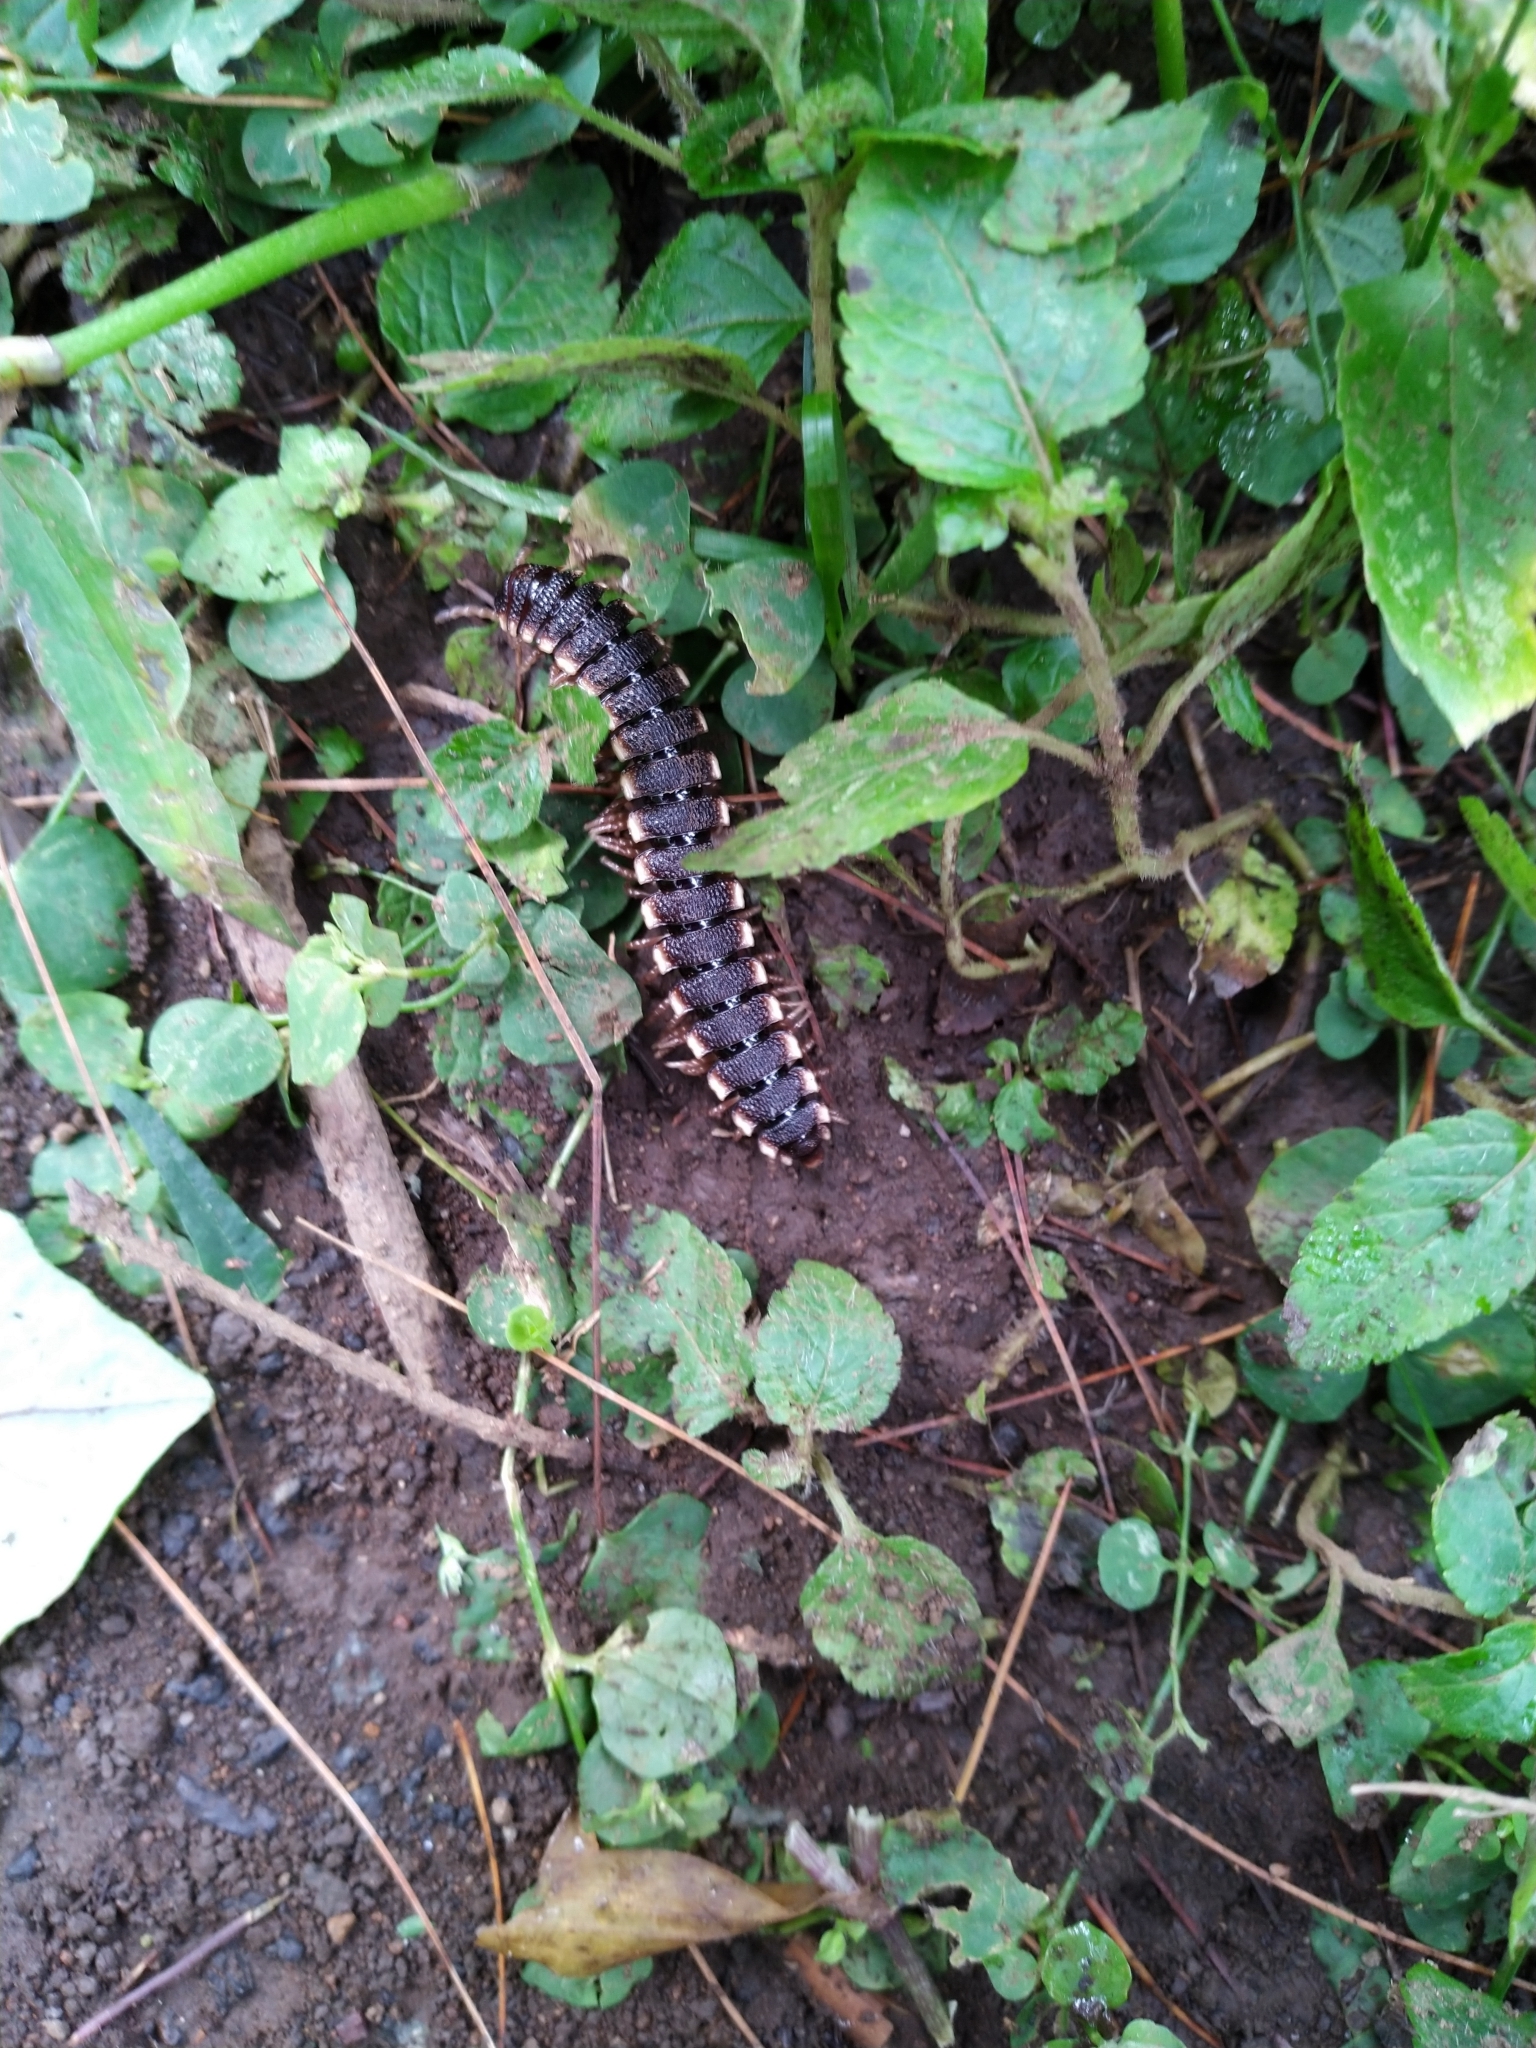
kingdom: Animalia
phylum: Arthropoda
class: Diplopoda
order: Polydesmida
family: Aphelidesmidae
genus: Amplinus
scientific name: Amplinus bitumidus
